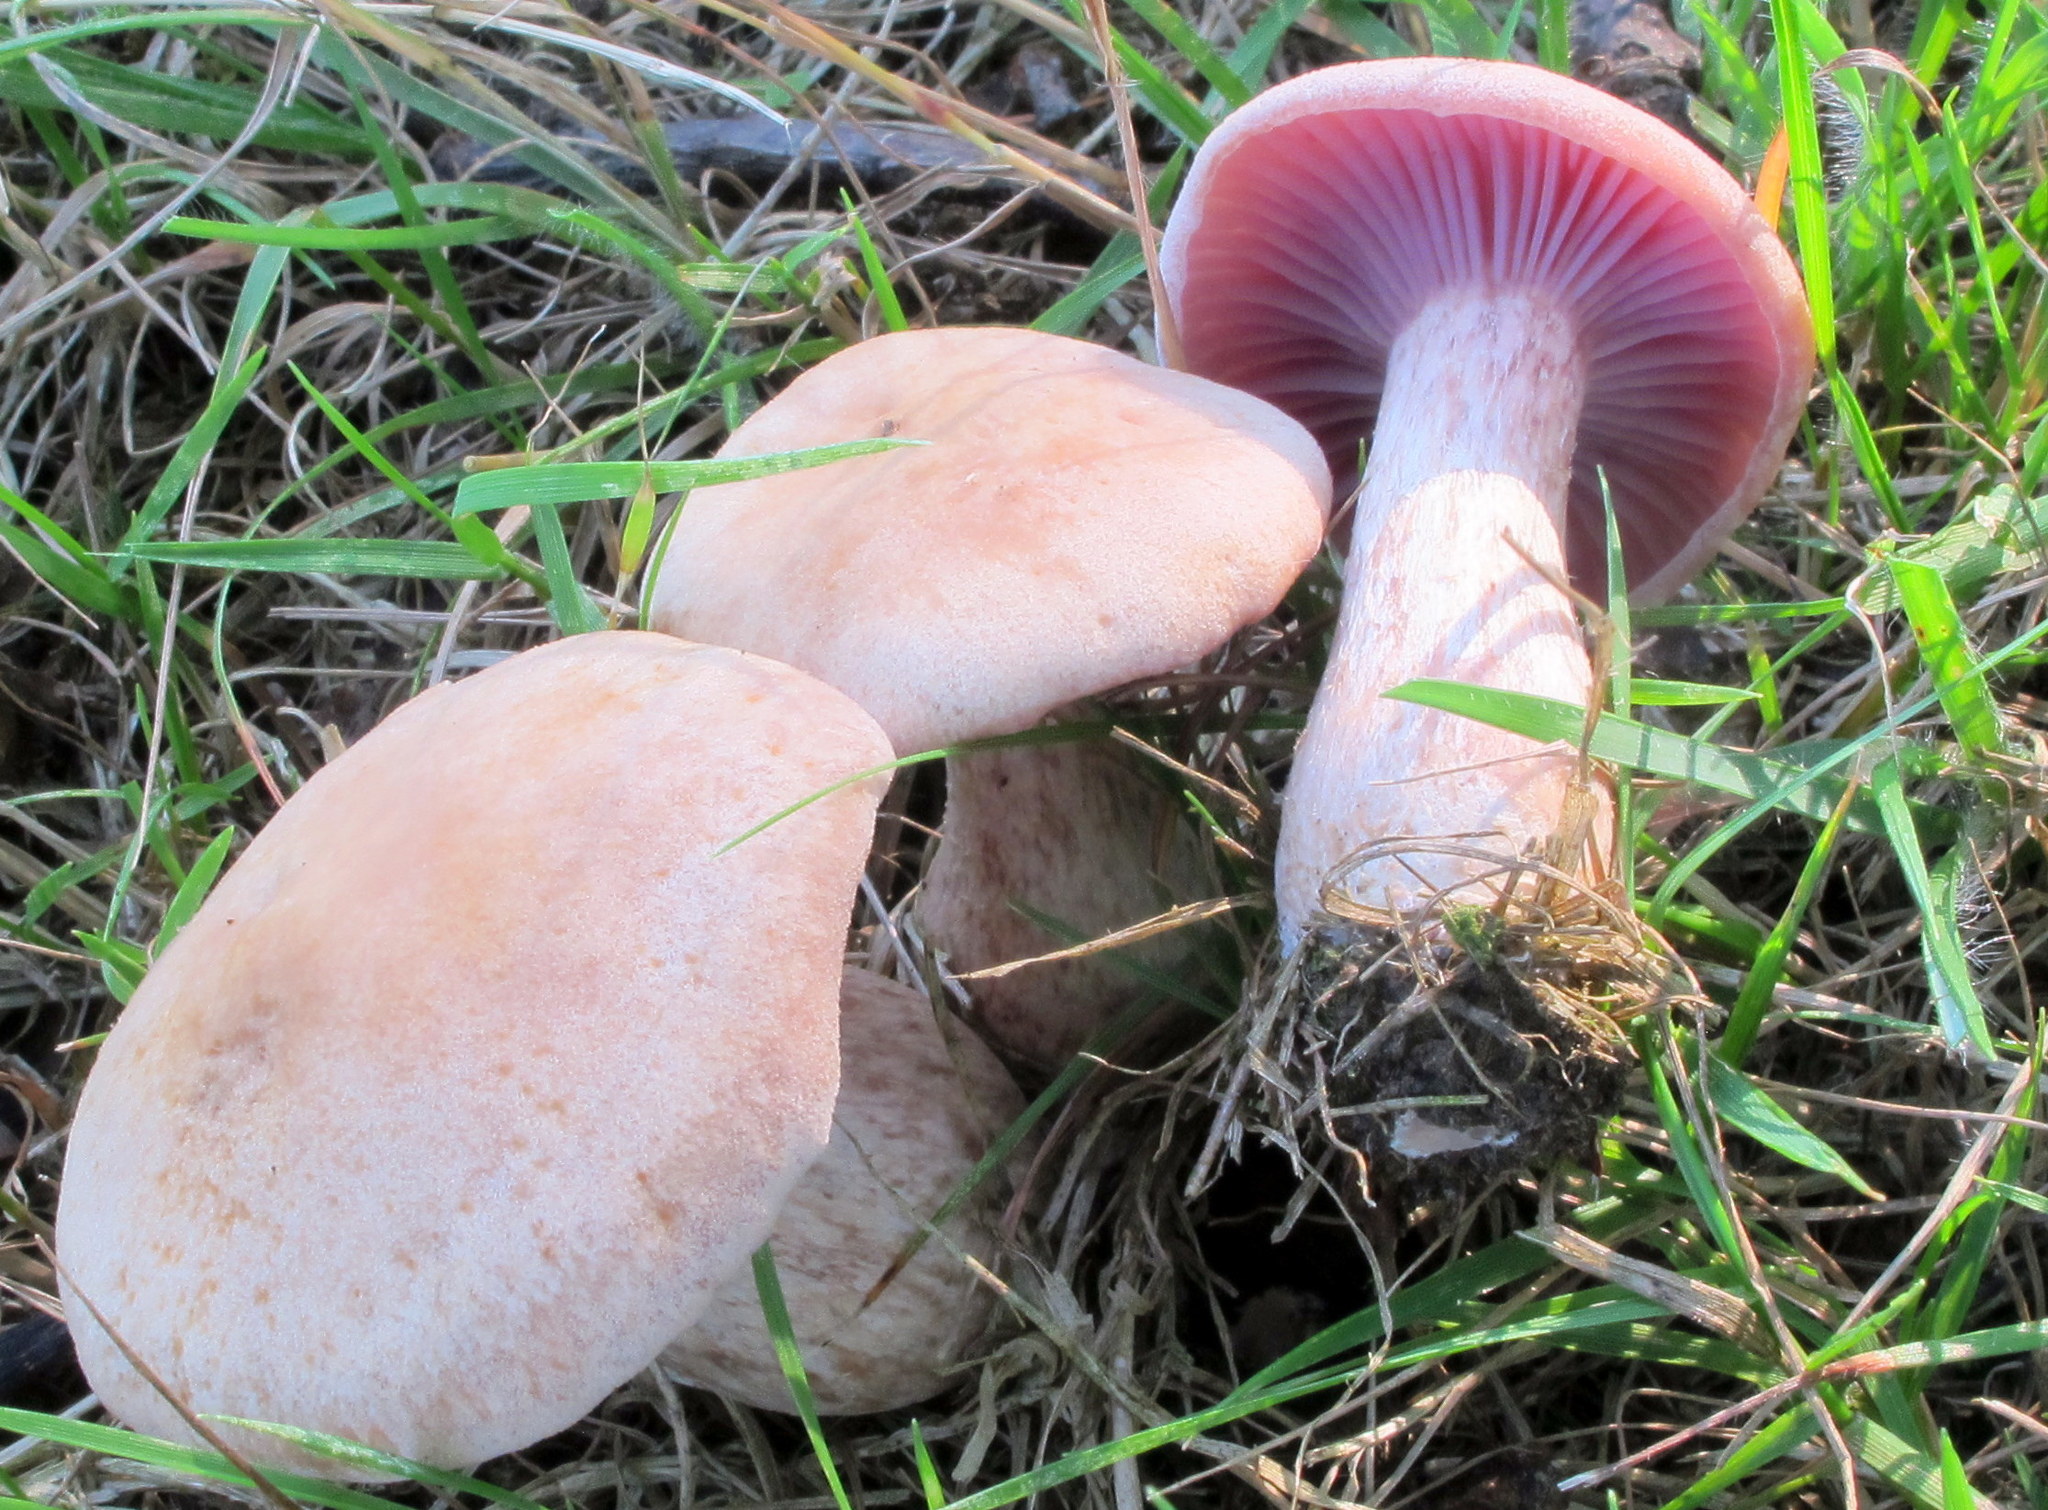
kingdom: Fungi
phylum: Basidiomycota
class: Agaricomycetes
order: Agaricales
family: Hydnangiaceae
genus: Laccaria
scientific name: Laccaria ochropurpurea
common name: Purple laccaria
